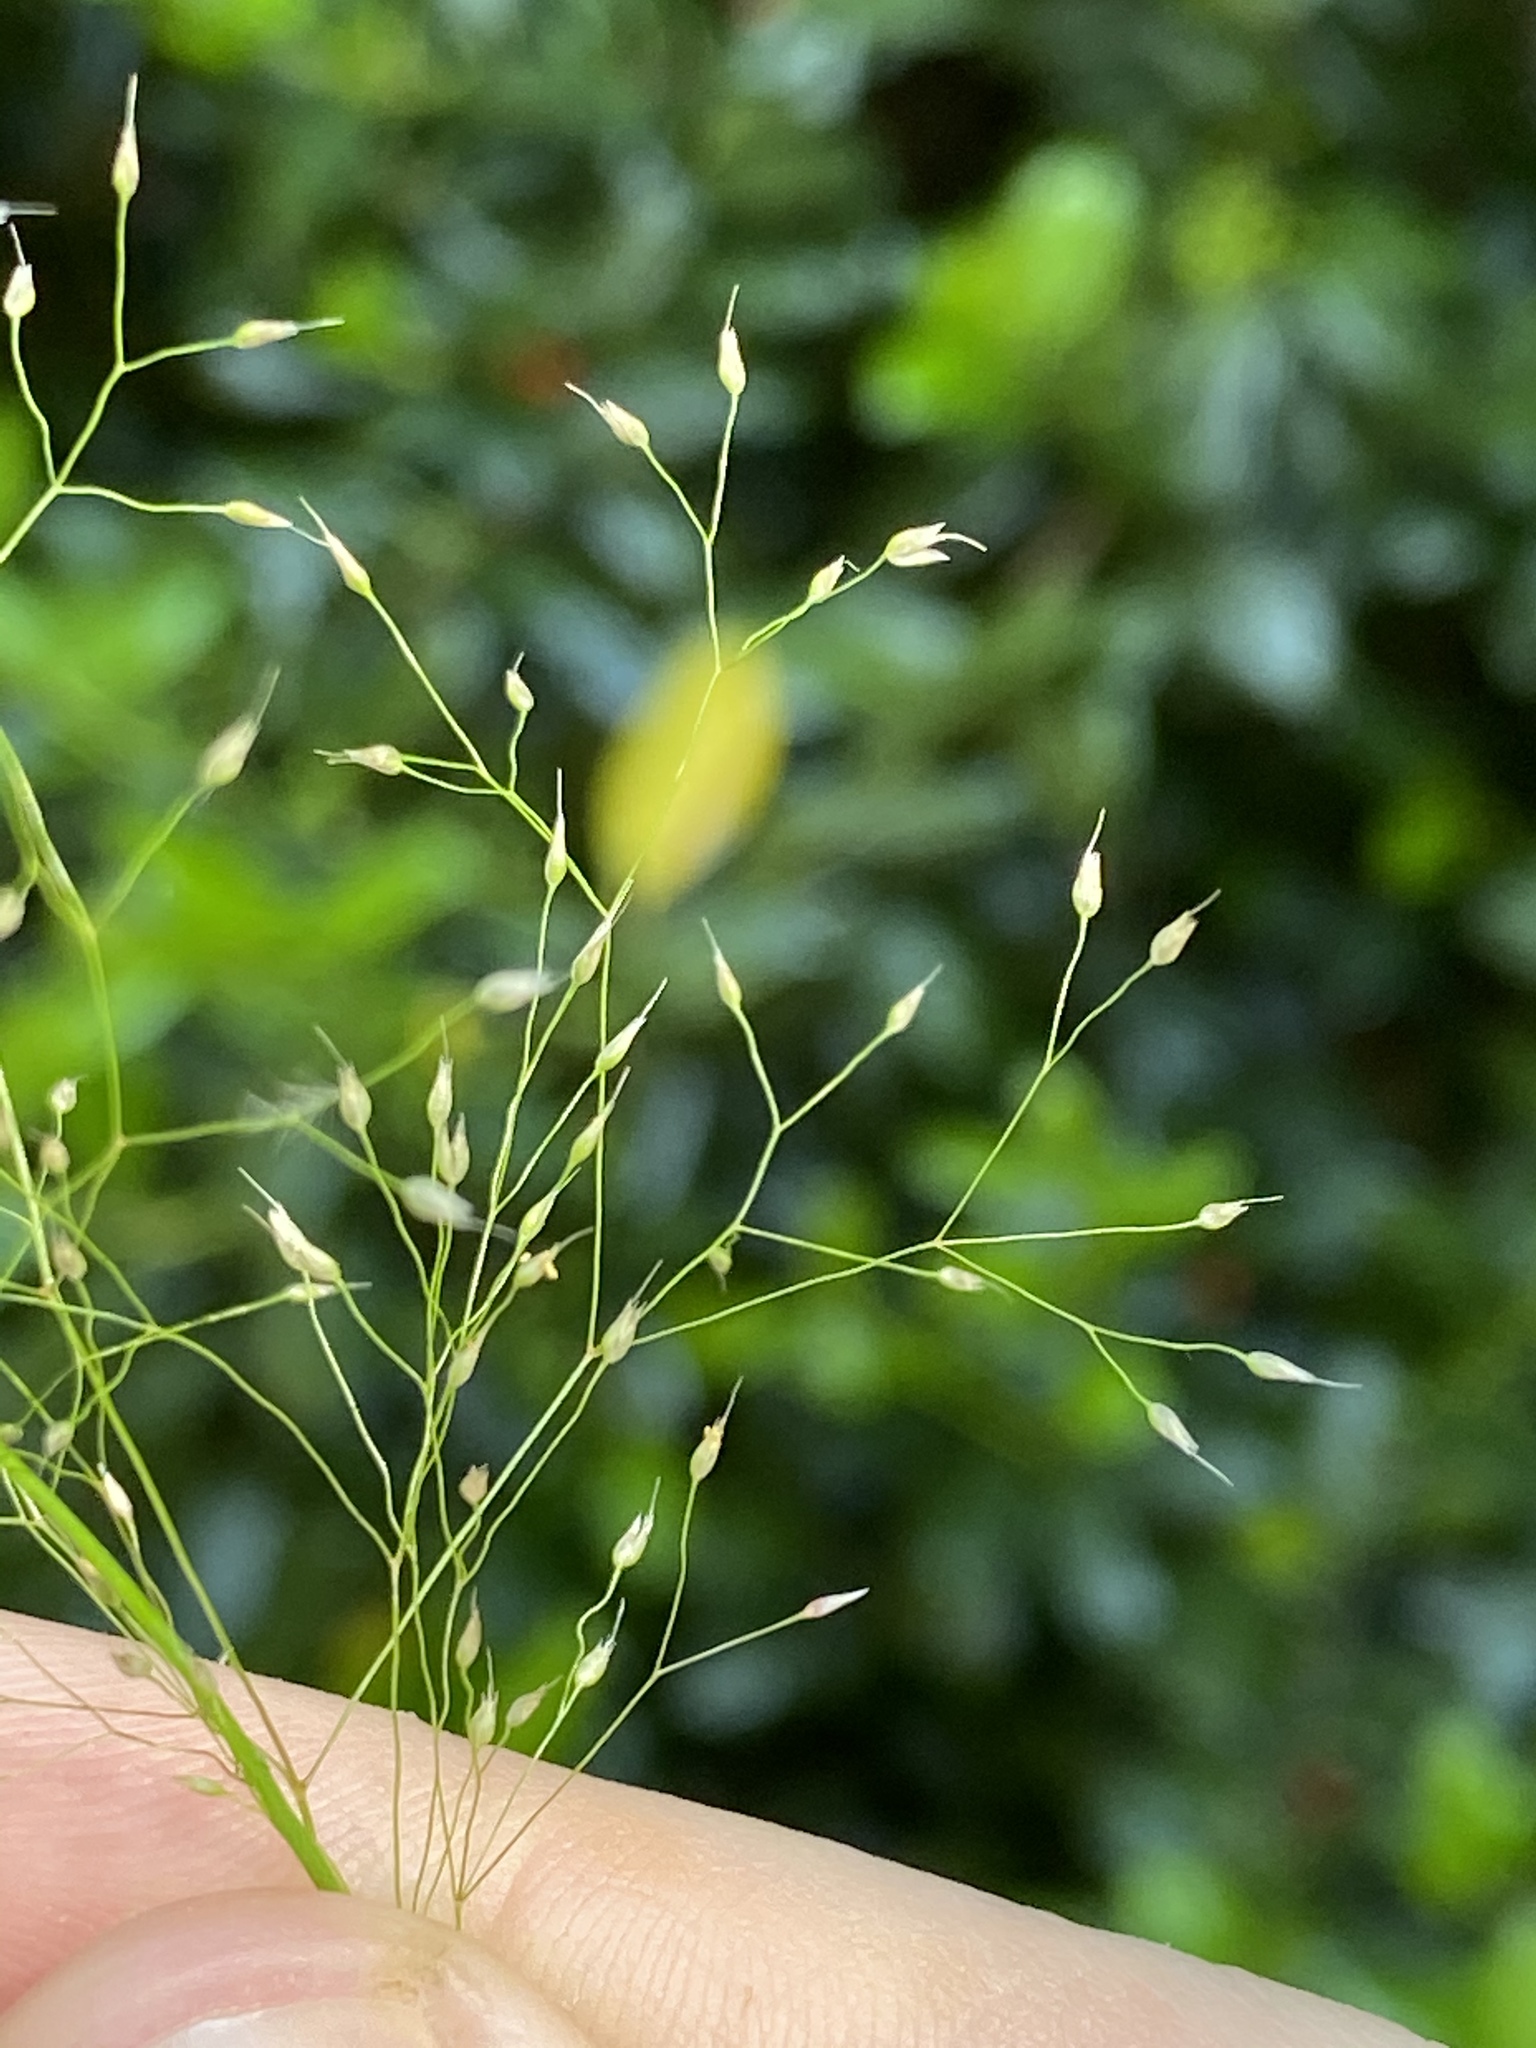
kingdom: Plantae
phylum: Tracheophyta
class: Liliopsida
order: Poales
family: Poaceae
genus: Aira
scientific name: Aira caryophyllea
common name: Silver hairgrass
